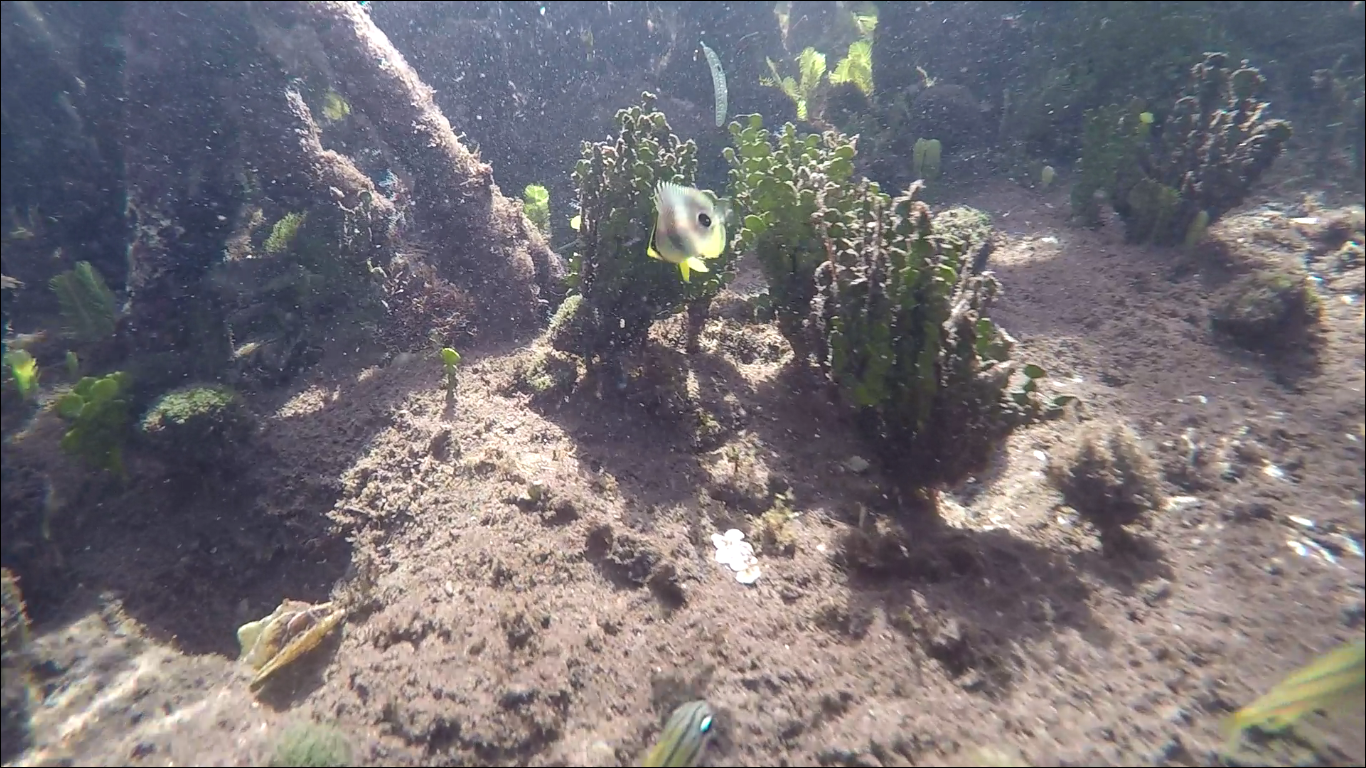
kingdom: Animalia
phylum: Chordata
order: Perciformes
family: Chaetodontidae
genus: Chaetodon
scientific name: Chaetodon capistratus
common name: Kete
